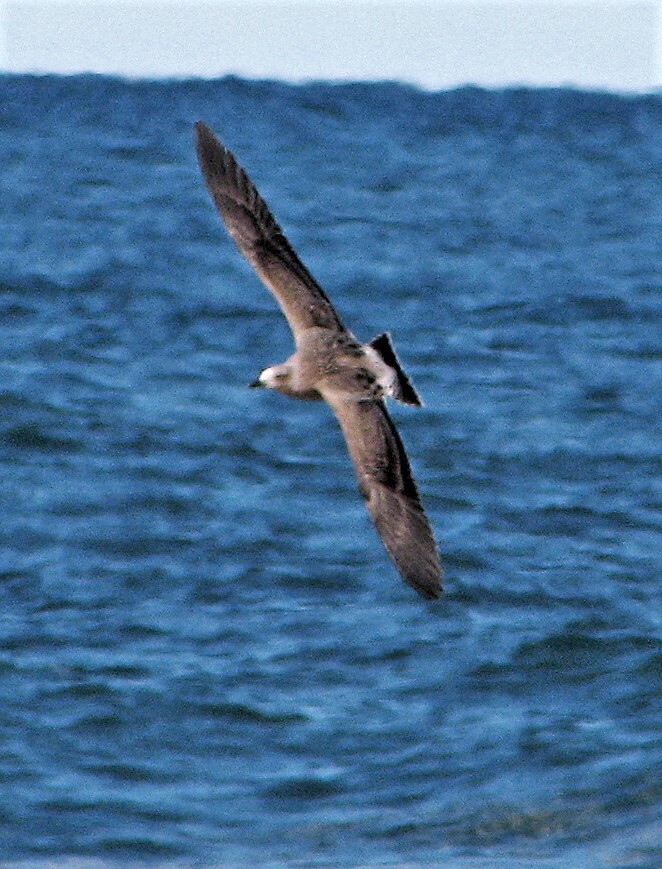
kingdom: Animalia
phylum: Chordata
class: Aves
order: Charadriiformes
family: Laridae
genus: Larus
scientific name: Larus dominicanus
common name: Kelp gull
